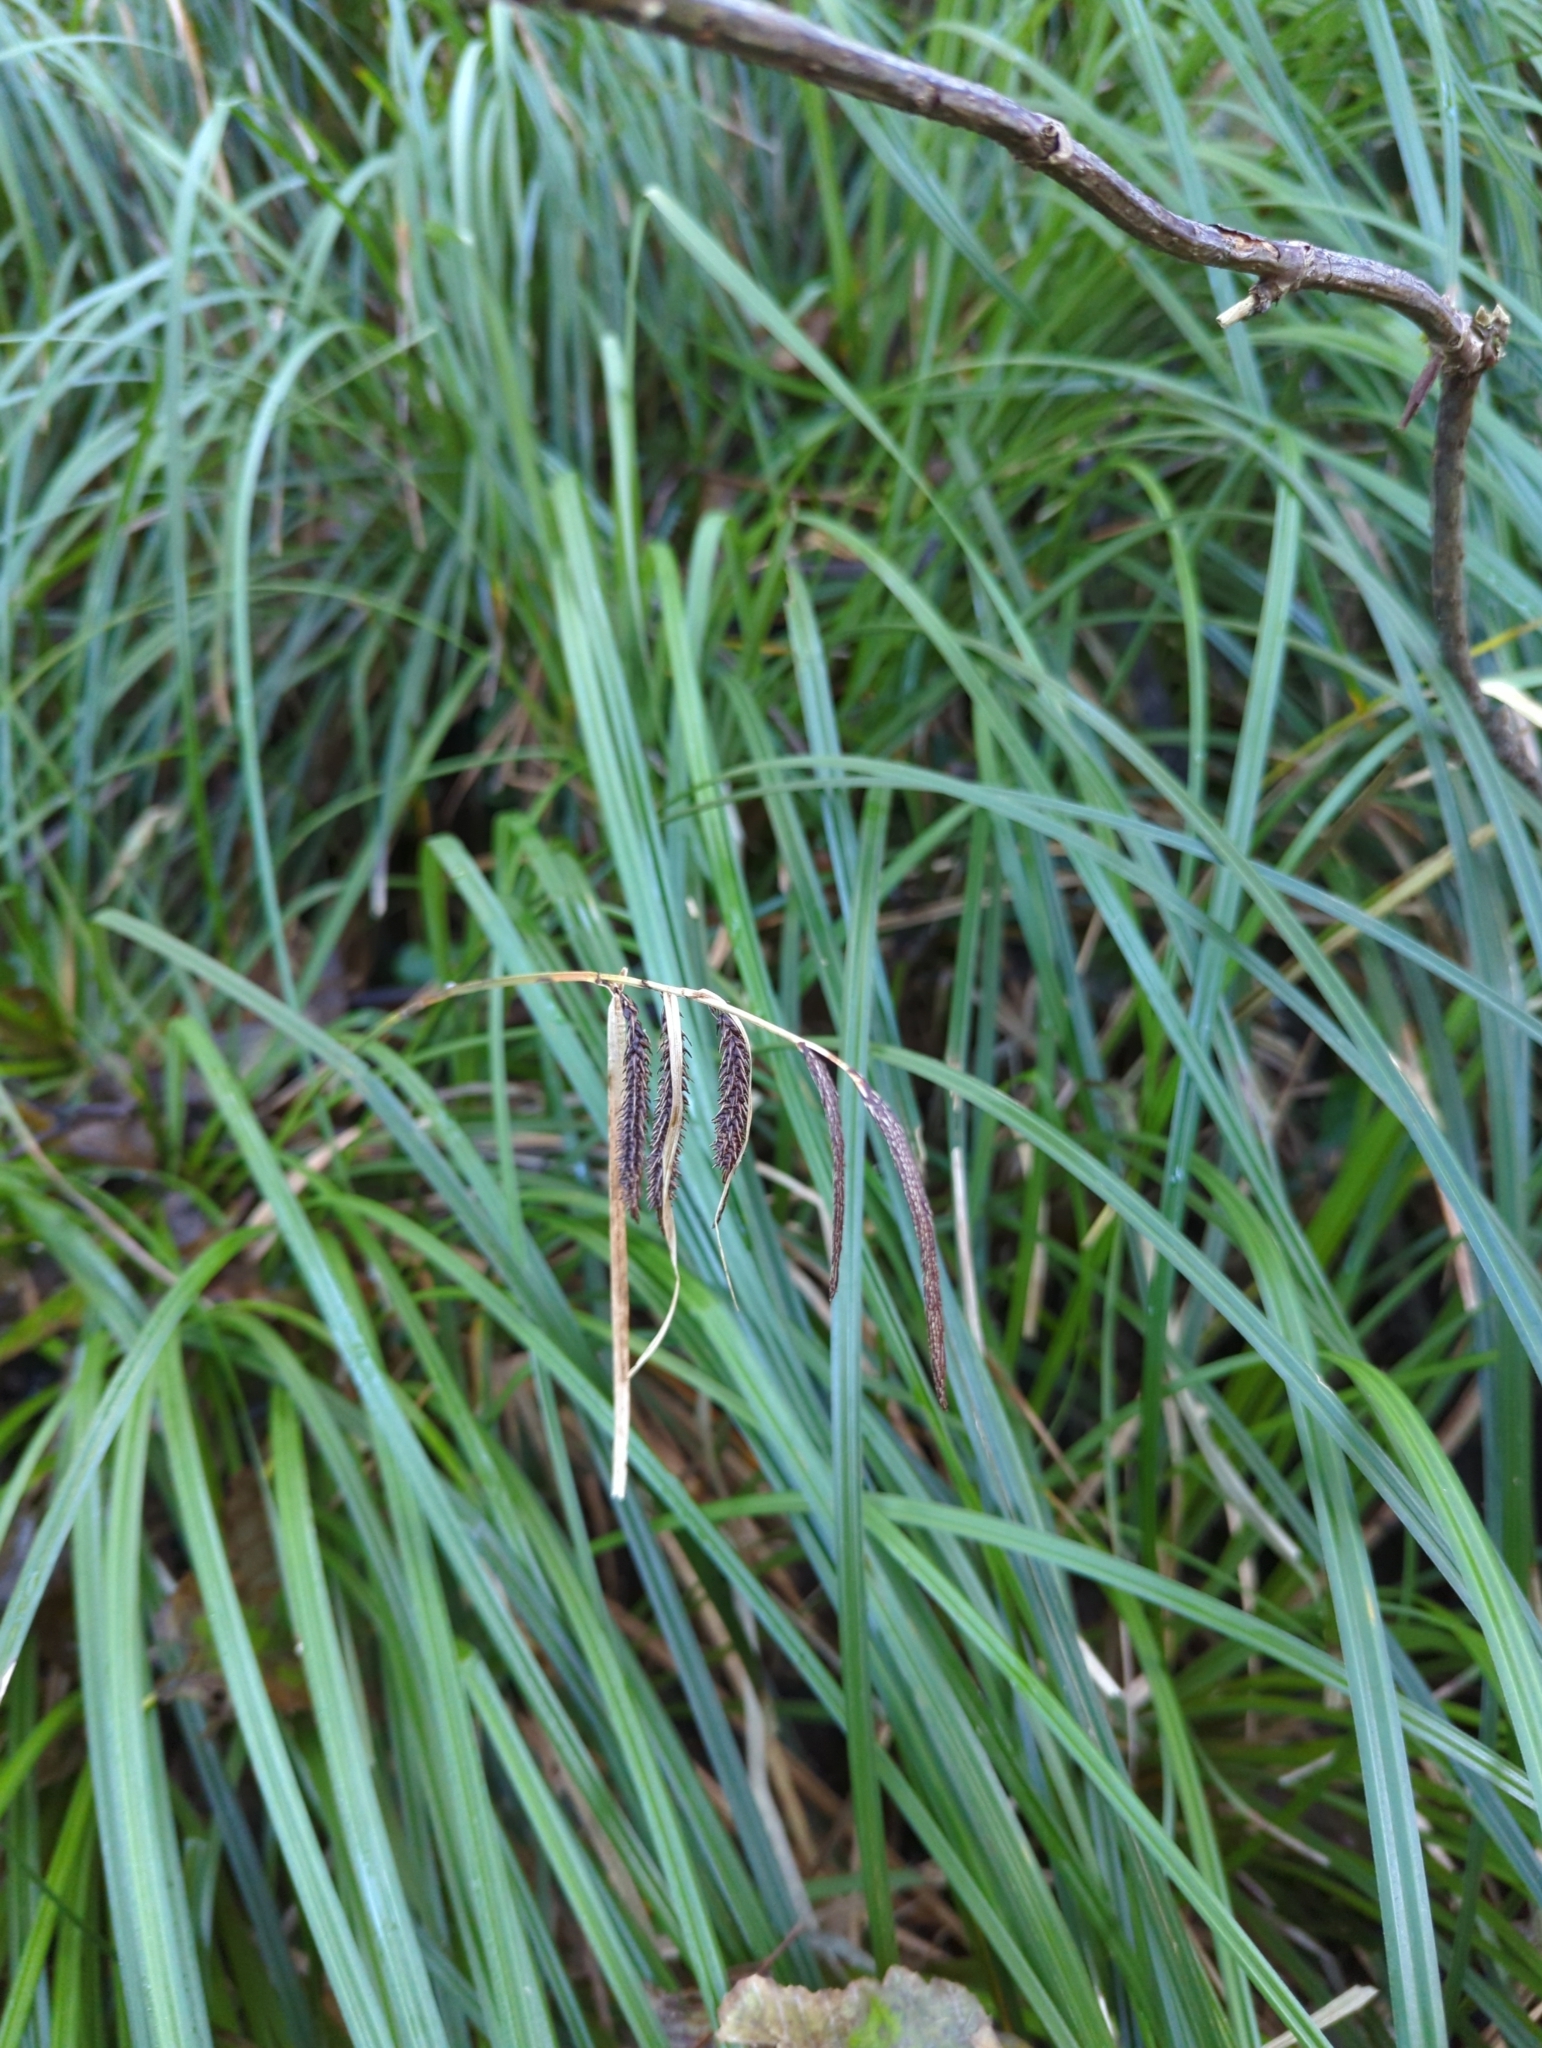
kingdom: Plantae
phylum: Tracheophyta
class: Liliopsida
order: Poales
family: Cyperaceae
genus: Carex
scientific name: Carex obnupta
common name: Slough sedge
